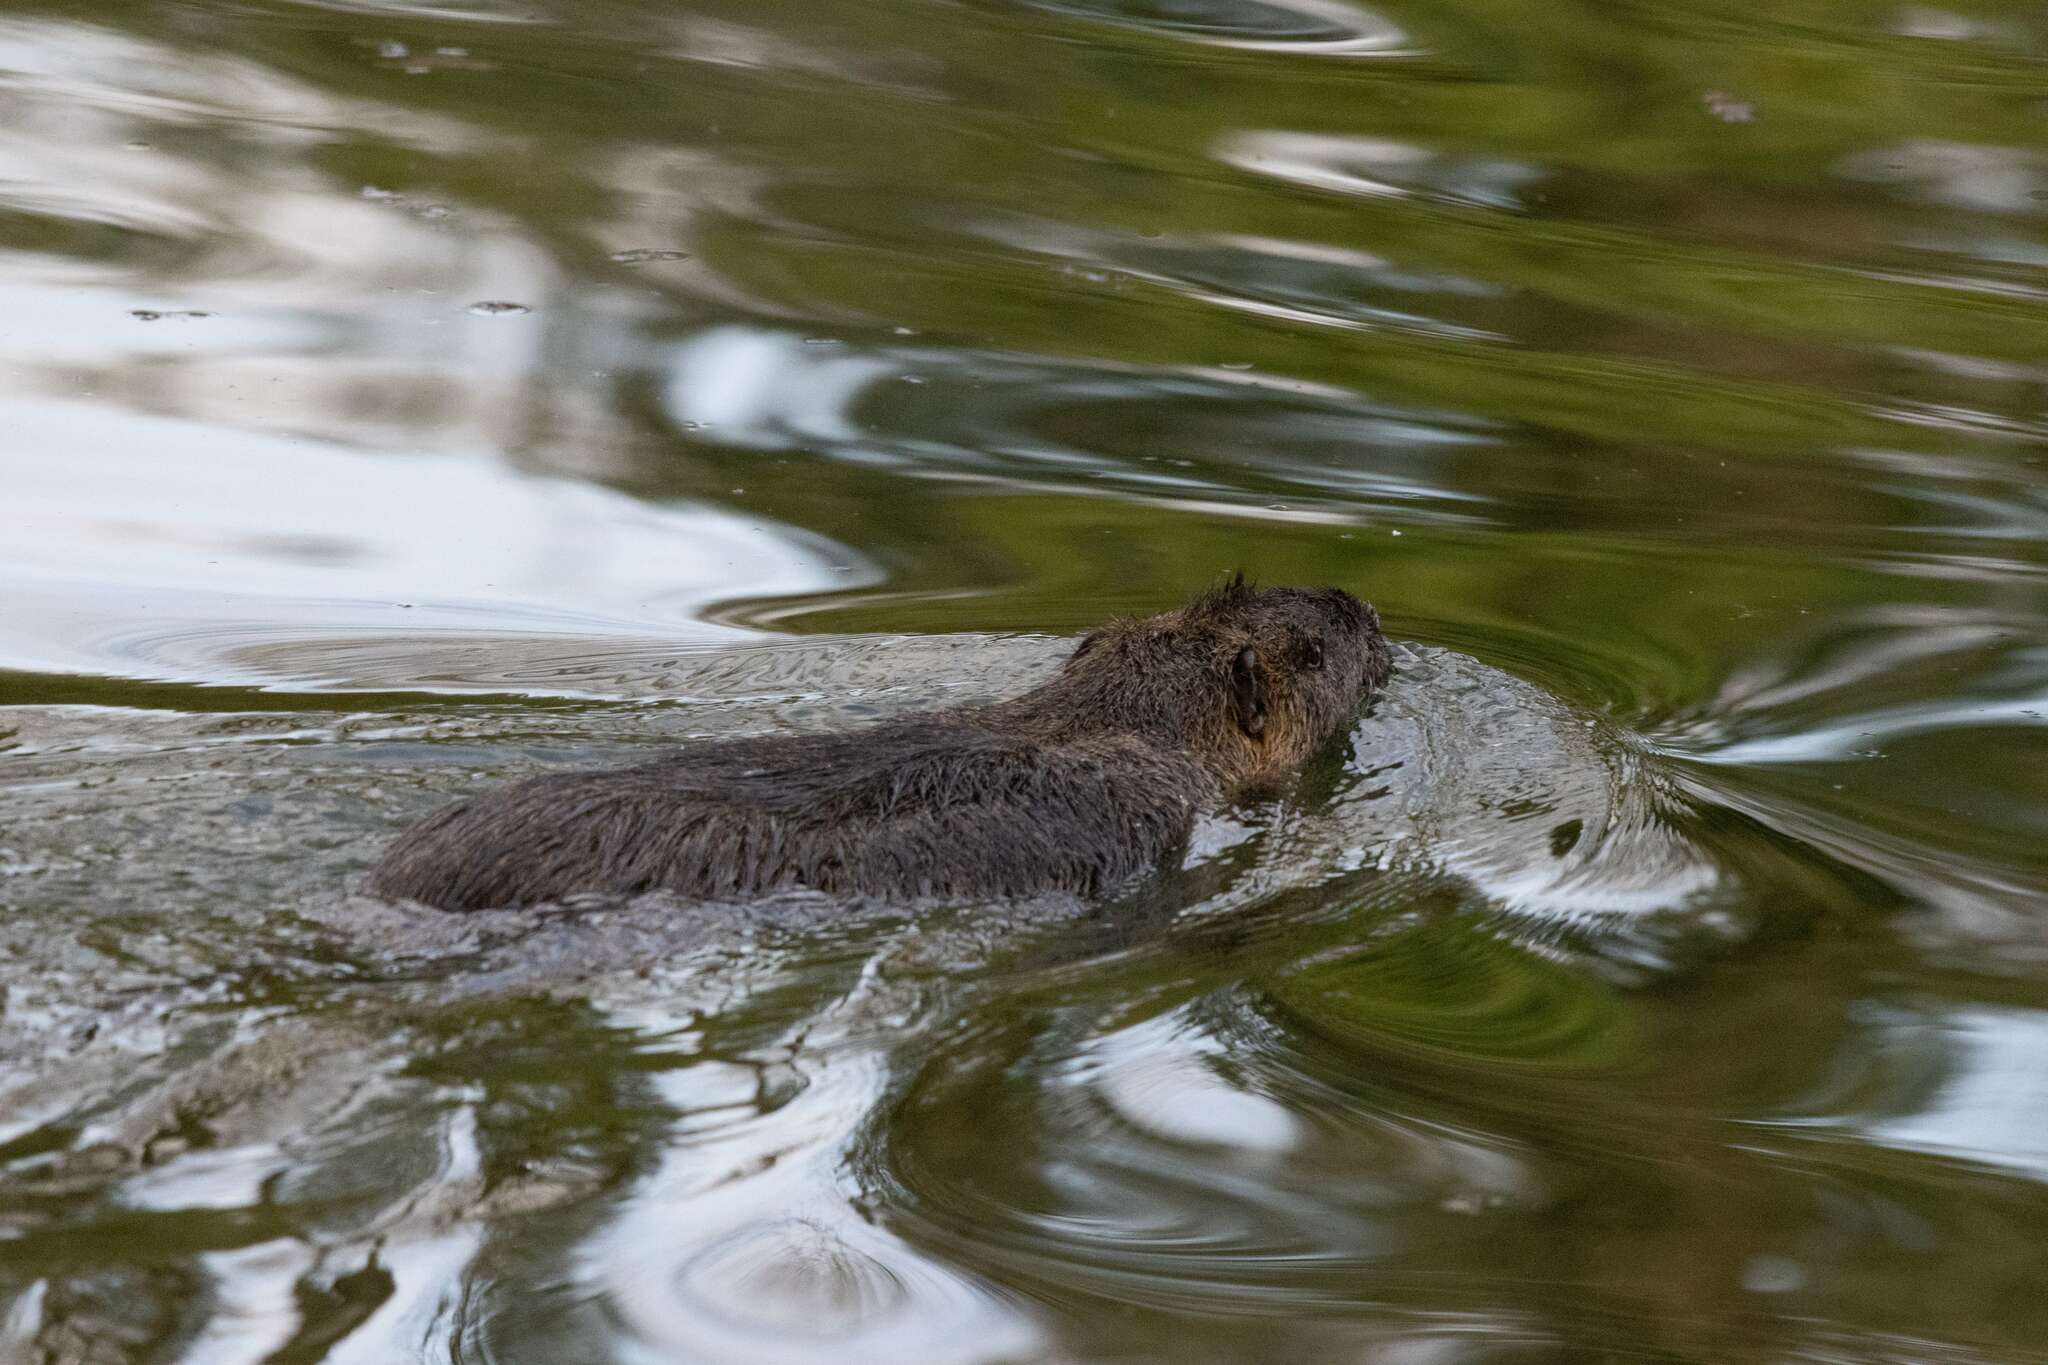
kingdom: Animalia
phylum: Chordata
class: Mammalia
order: Rodentia
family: Myocastoridae
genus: Myocastor
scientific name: Myocastor coypus
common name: Coypu
